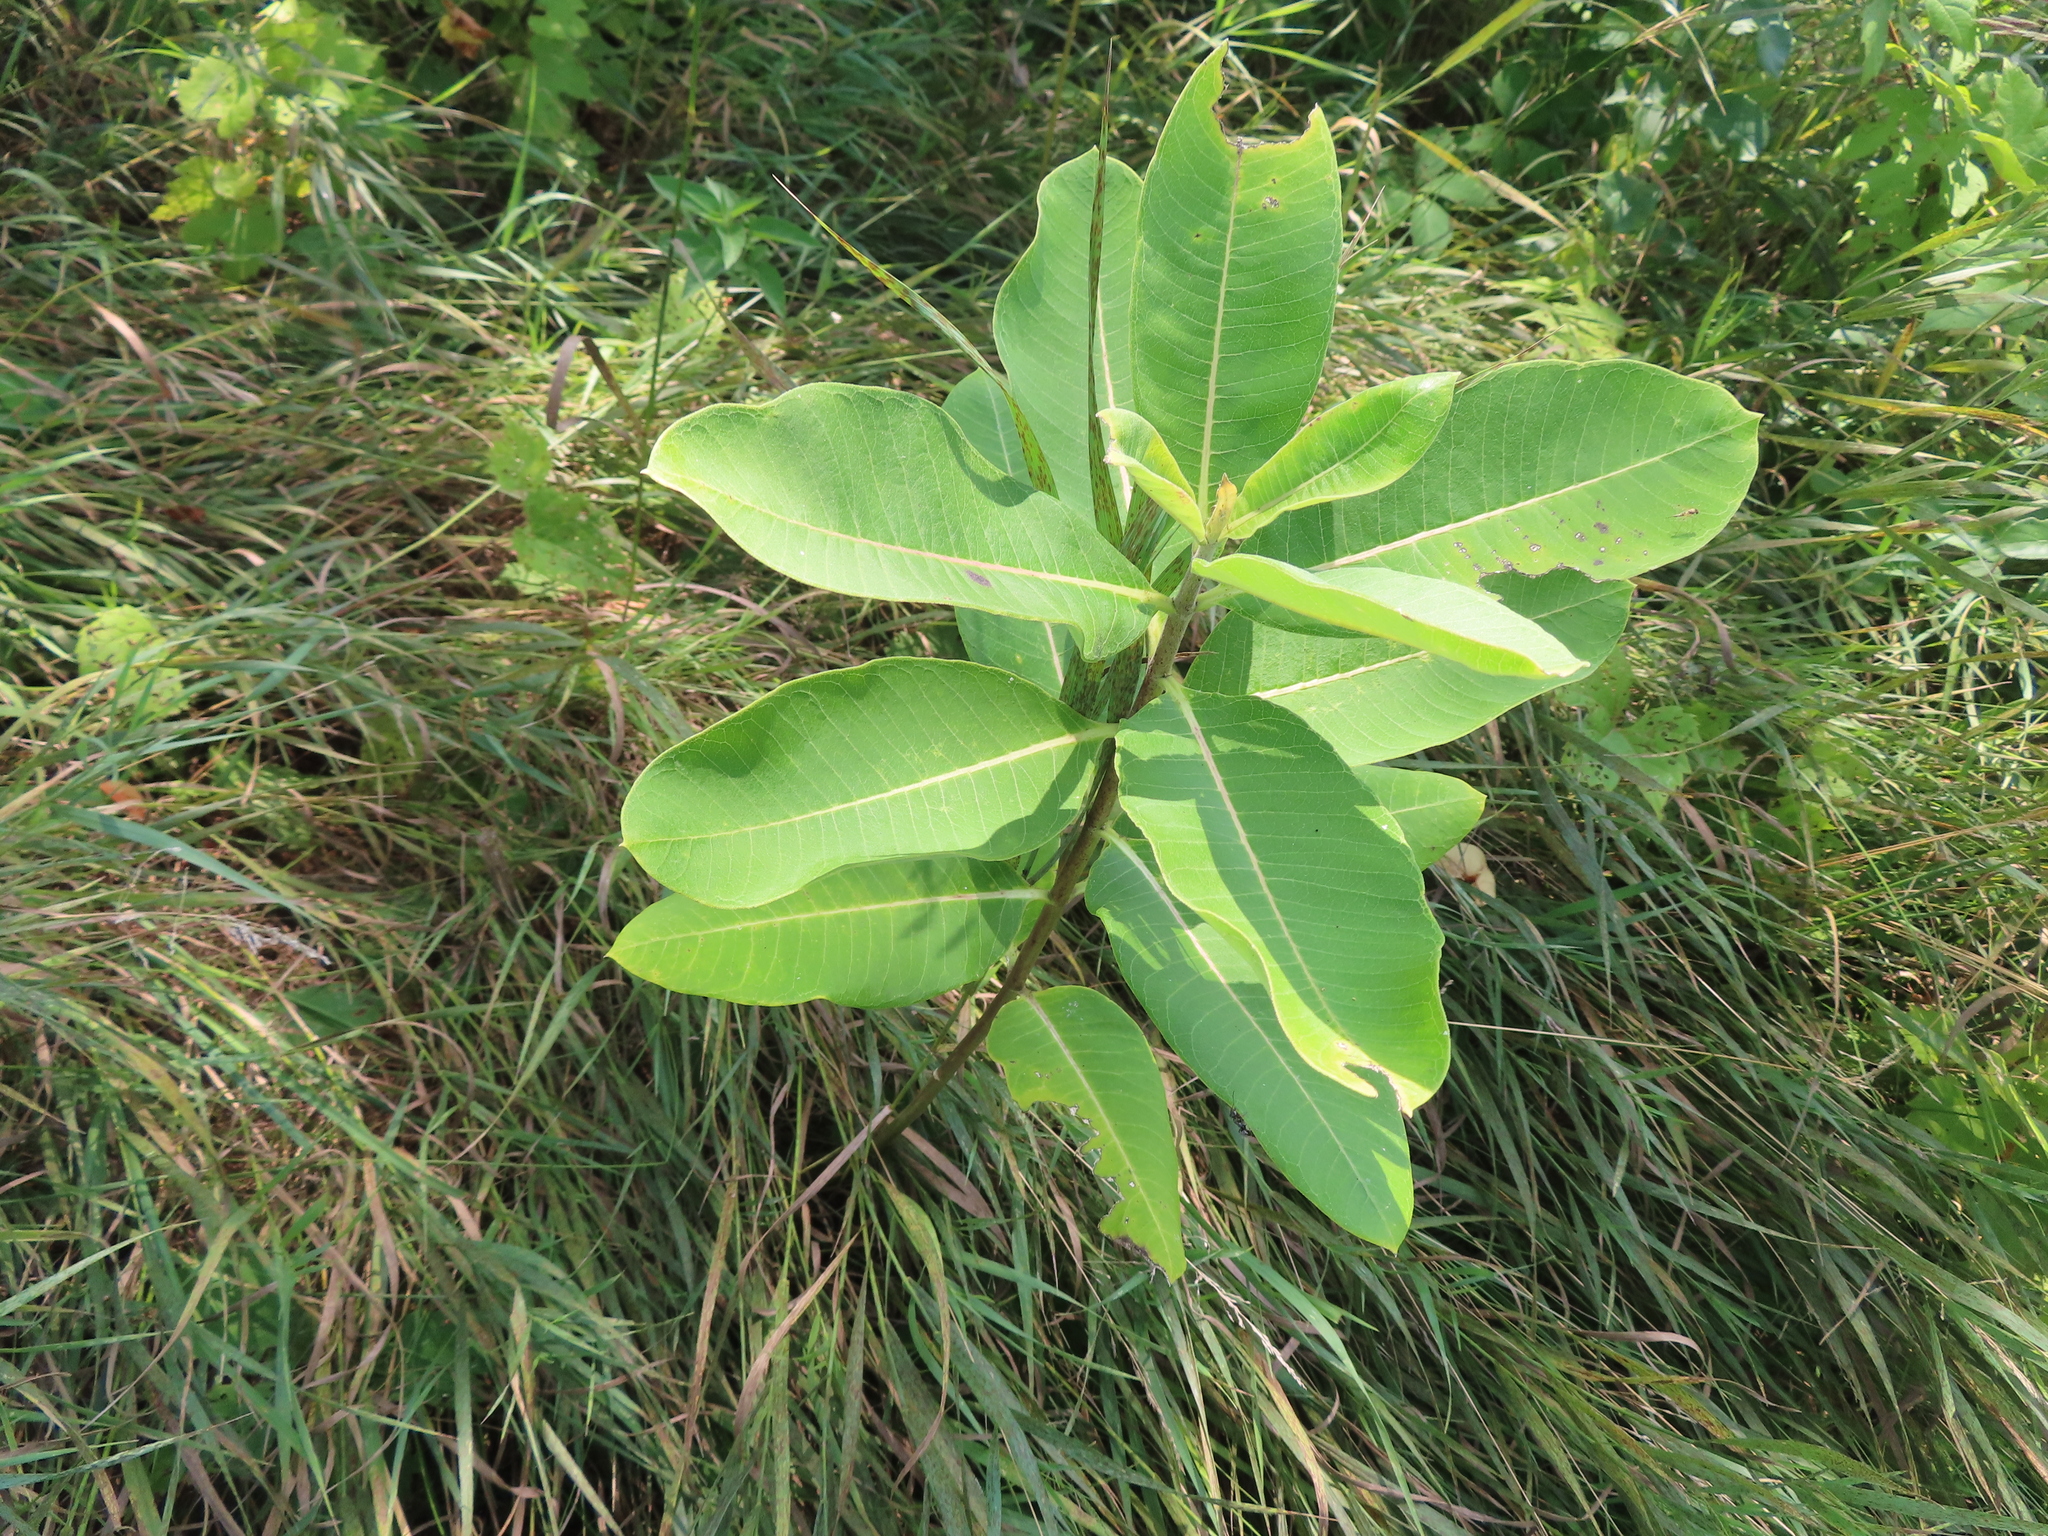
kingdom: Plantae
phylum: Tracheophyta
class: Magnoliopsida
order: Gentianales
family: Apocynaceae
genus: Asclepias
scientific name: Asclepias syriaca
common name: Common milkweed
